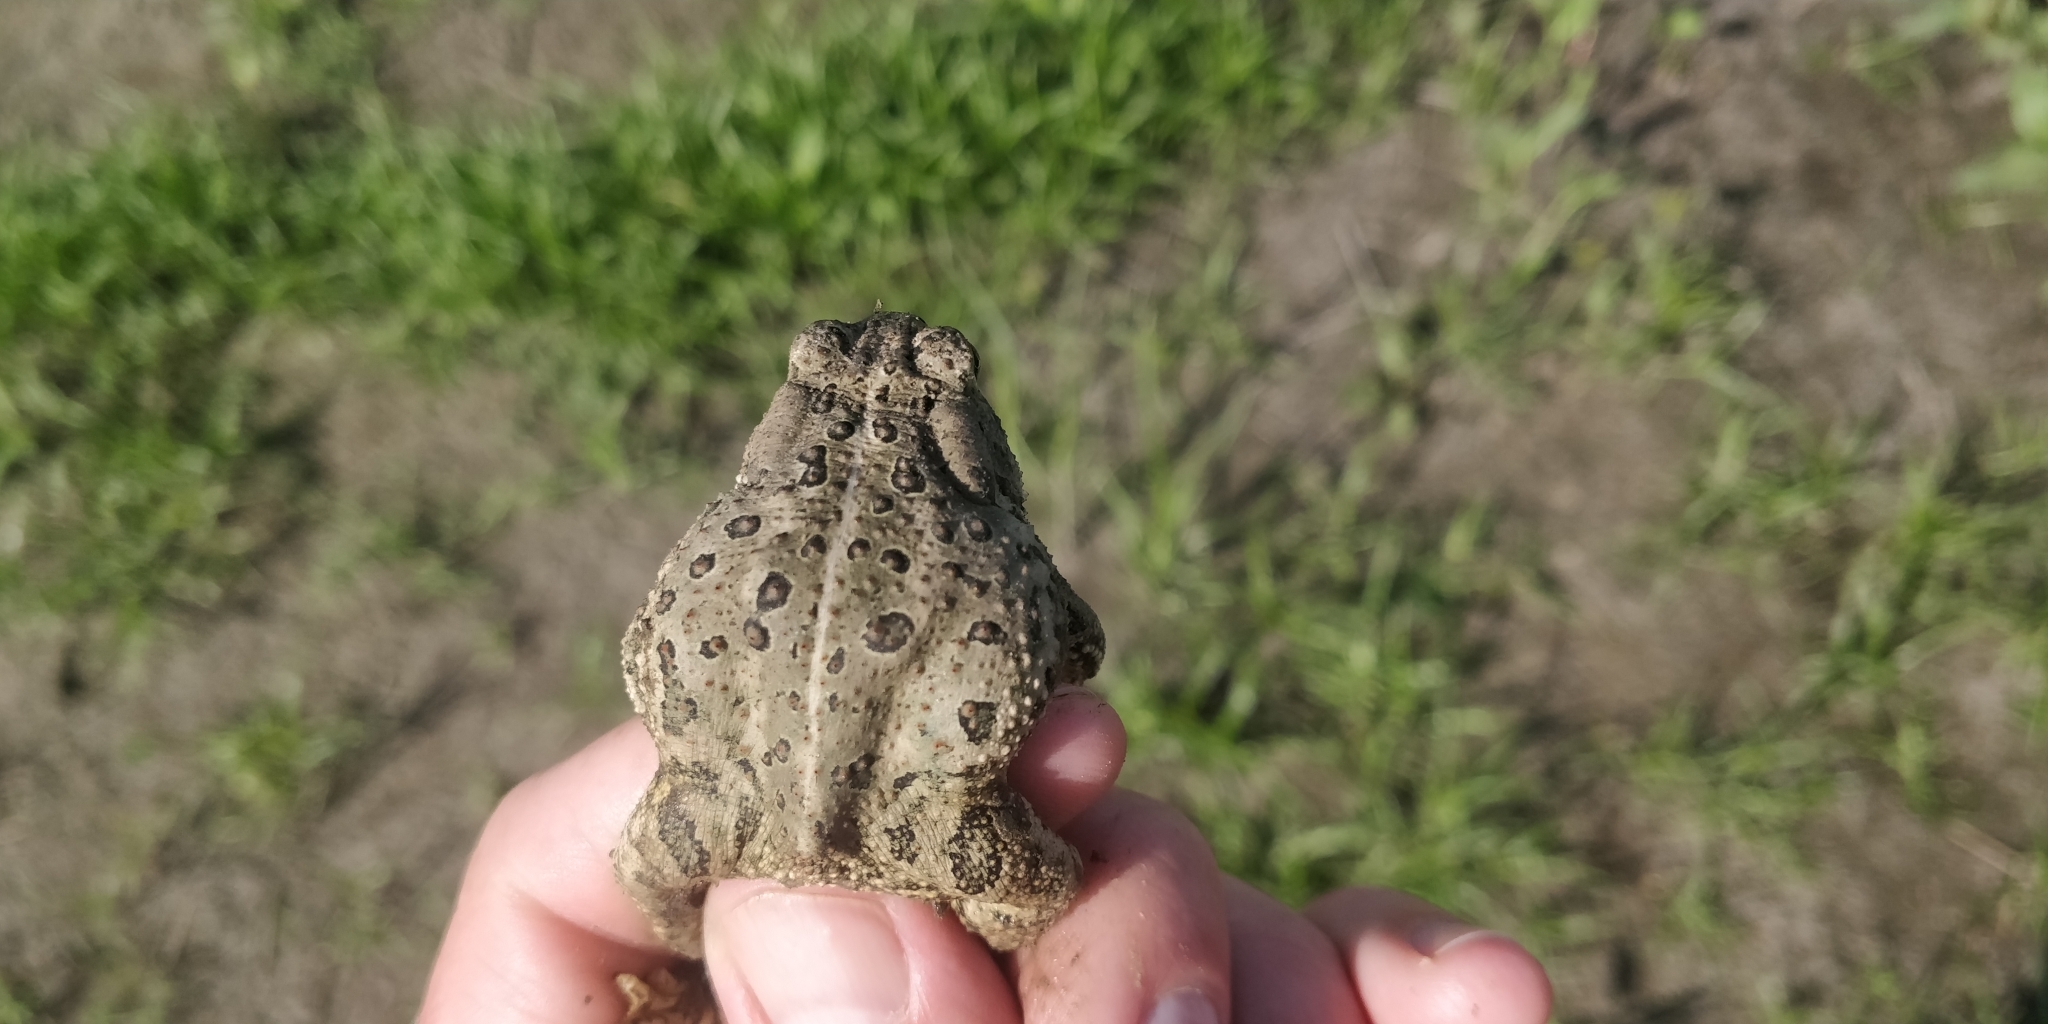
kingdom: Animalia
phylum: Chordata
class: Amphibia
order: Anura
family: Bufonidae
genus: Anaxyrus
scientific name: Anaxyrus woodhousii
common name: Woodhouse's toad
